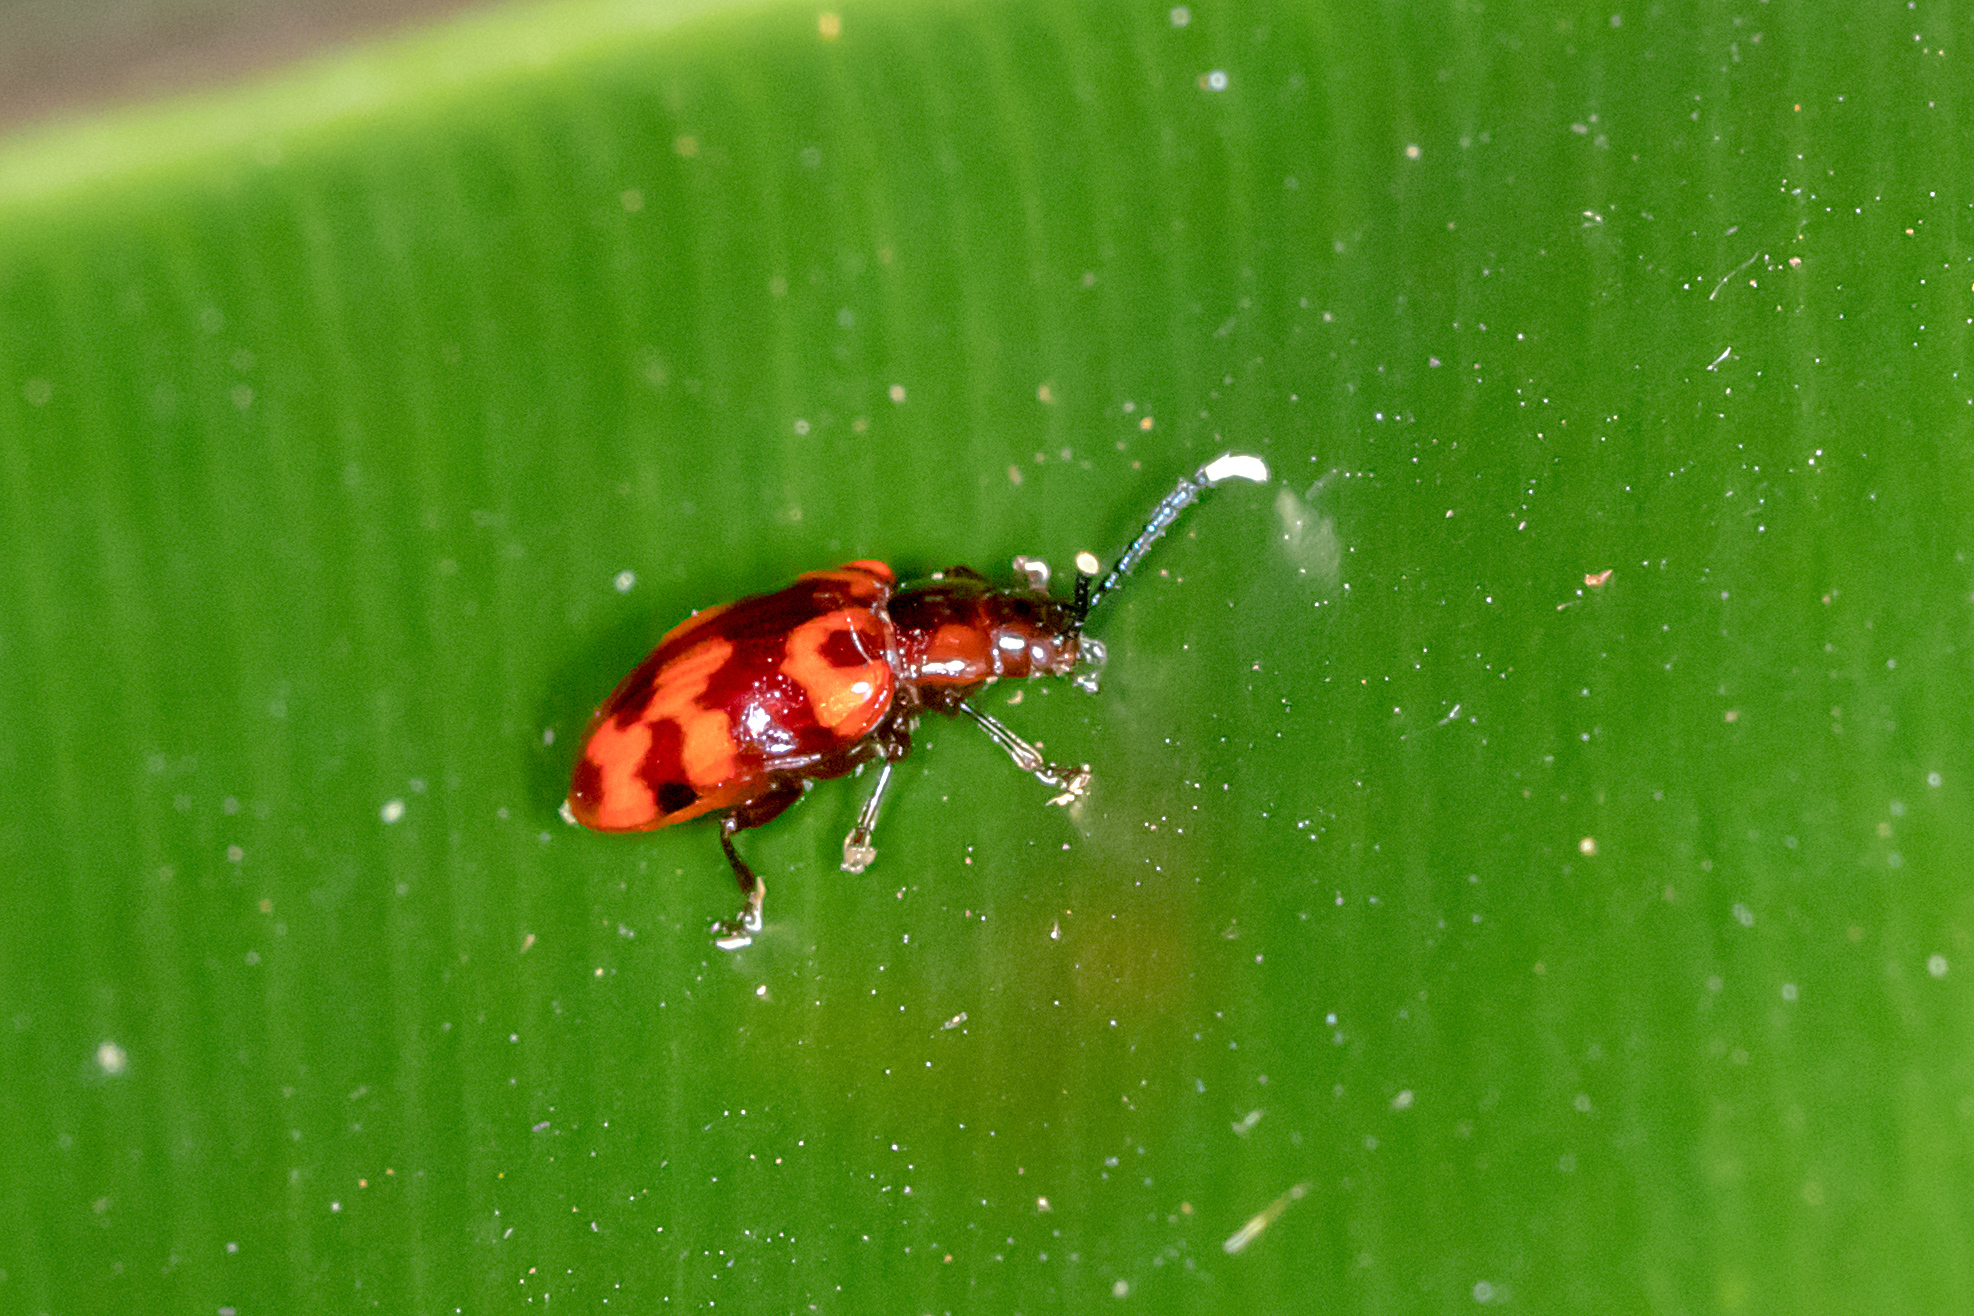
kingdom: Animalia
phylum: Arthropoda
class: Insecta
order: Coleoptera
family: Chrysomelidae
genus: Phyllocharis
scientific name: Phyllocharis
